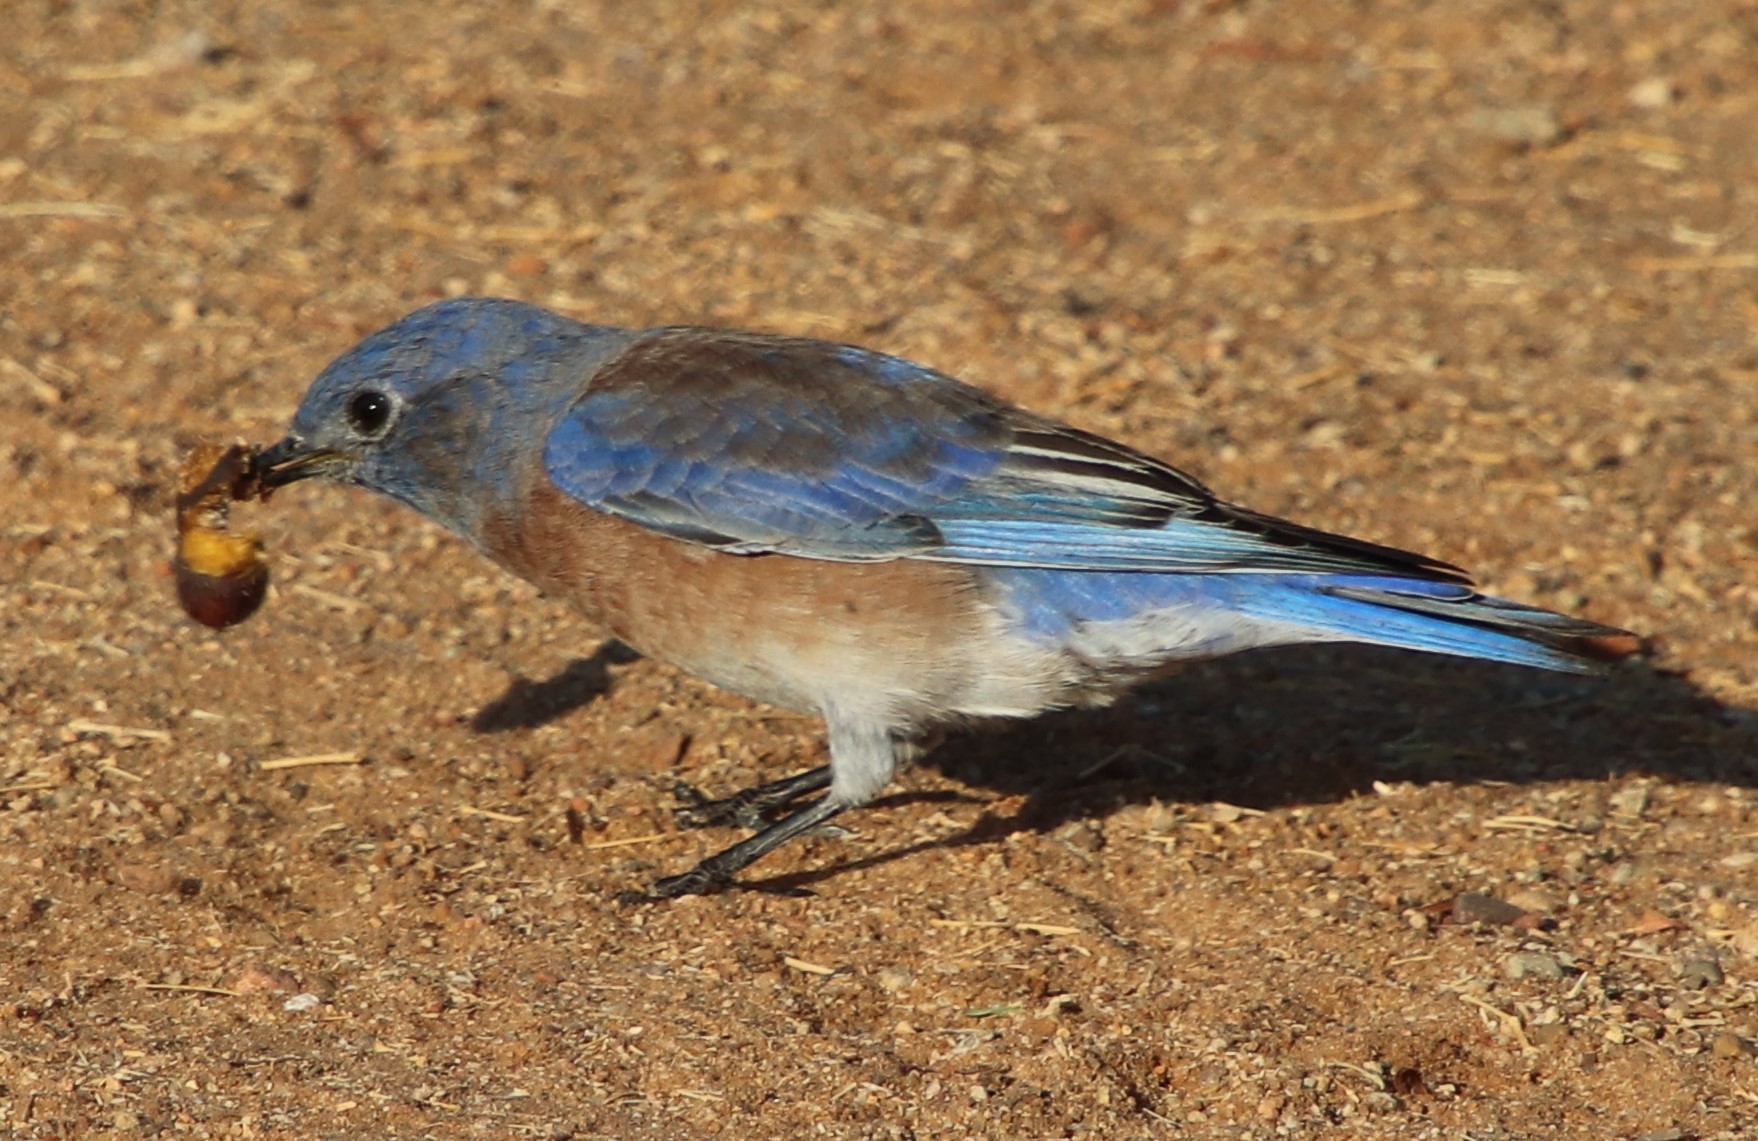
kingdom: Animalia
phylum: Chordata
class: Aves
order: Passeriformes
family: Turdidae
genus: Sialia
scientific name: Sialia mexicana
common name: Western bluebird
